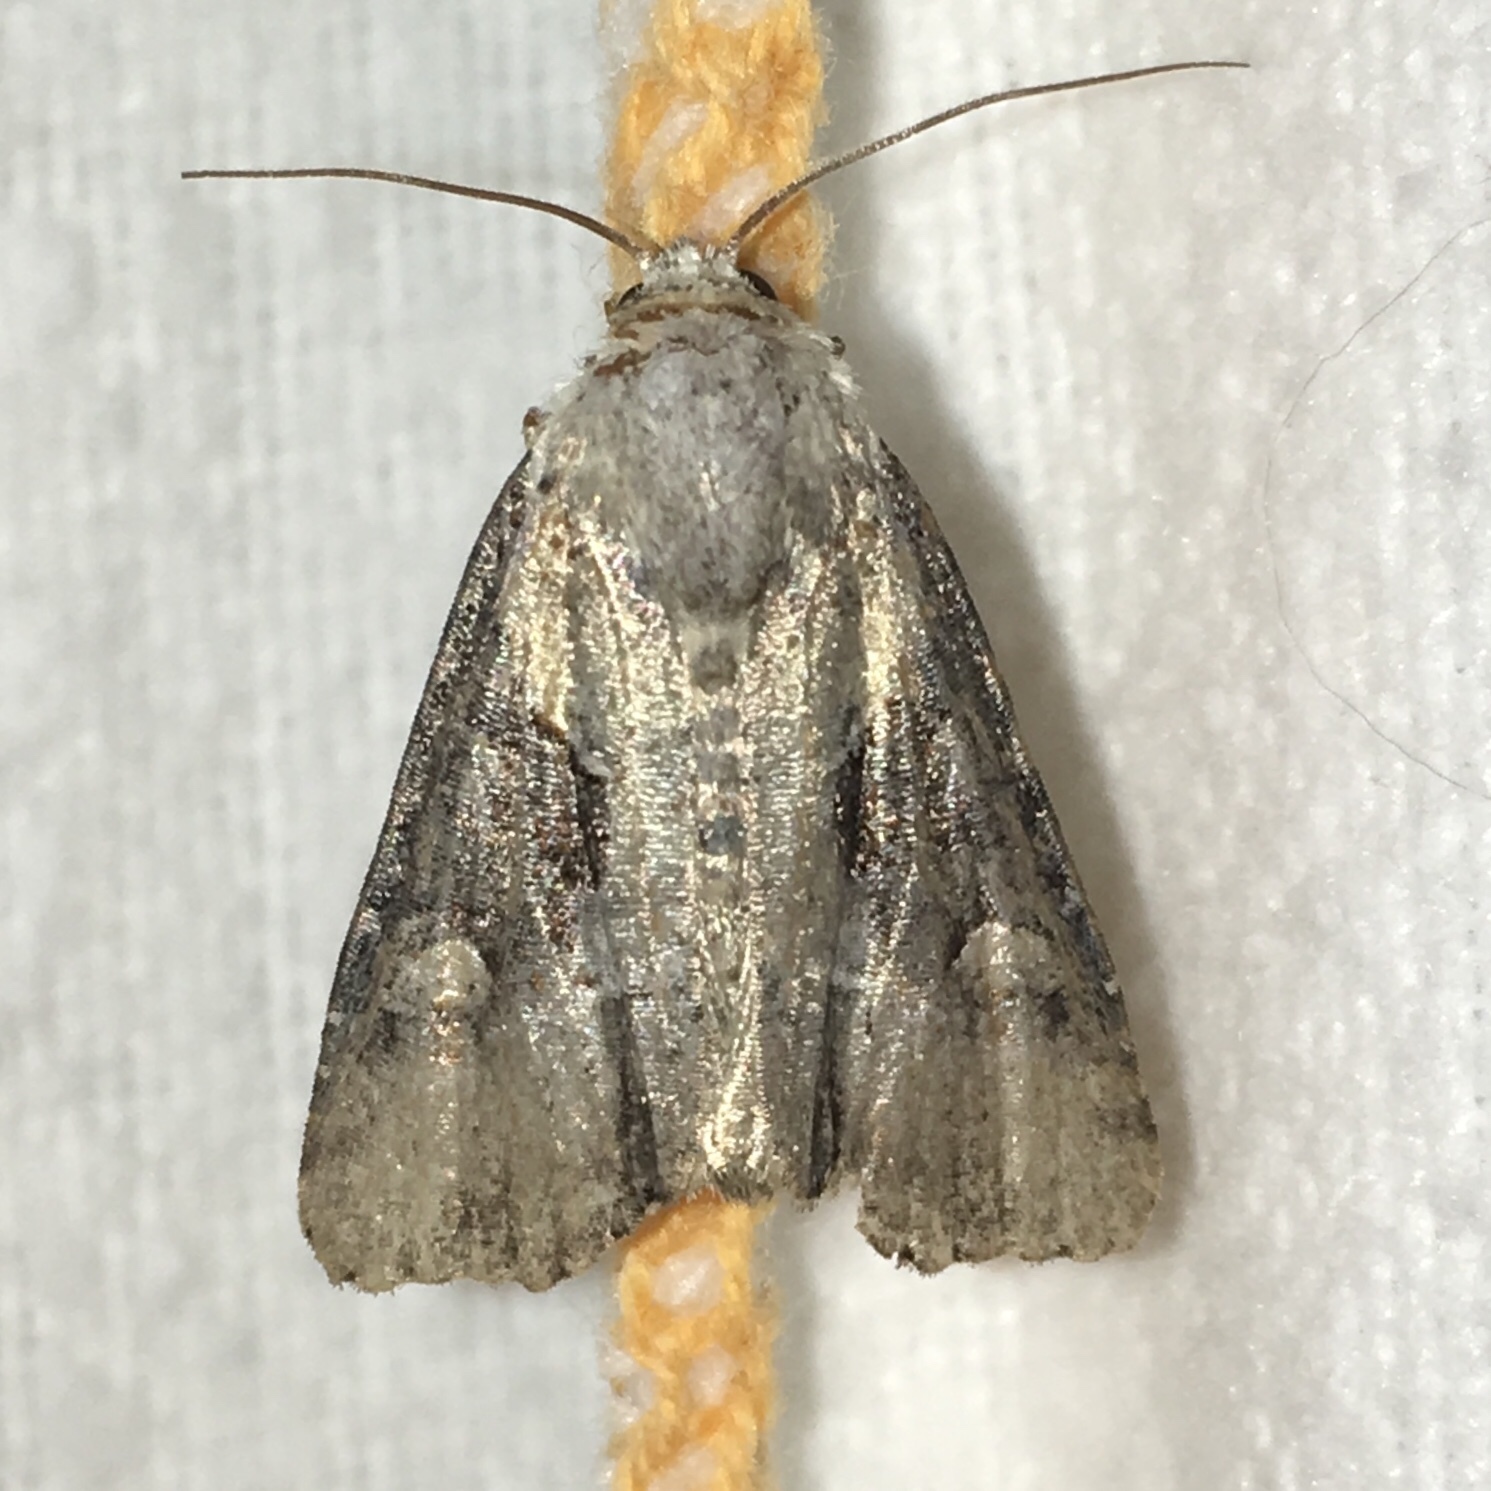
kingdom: Animalia
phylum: Arthropoda
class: Insecta
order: Lepidoptera
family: Noctuidae
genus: Lateroligia
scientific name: Lateroligia ophiogramma
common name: Double lobed
